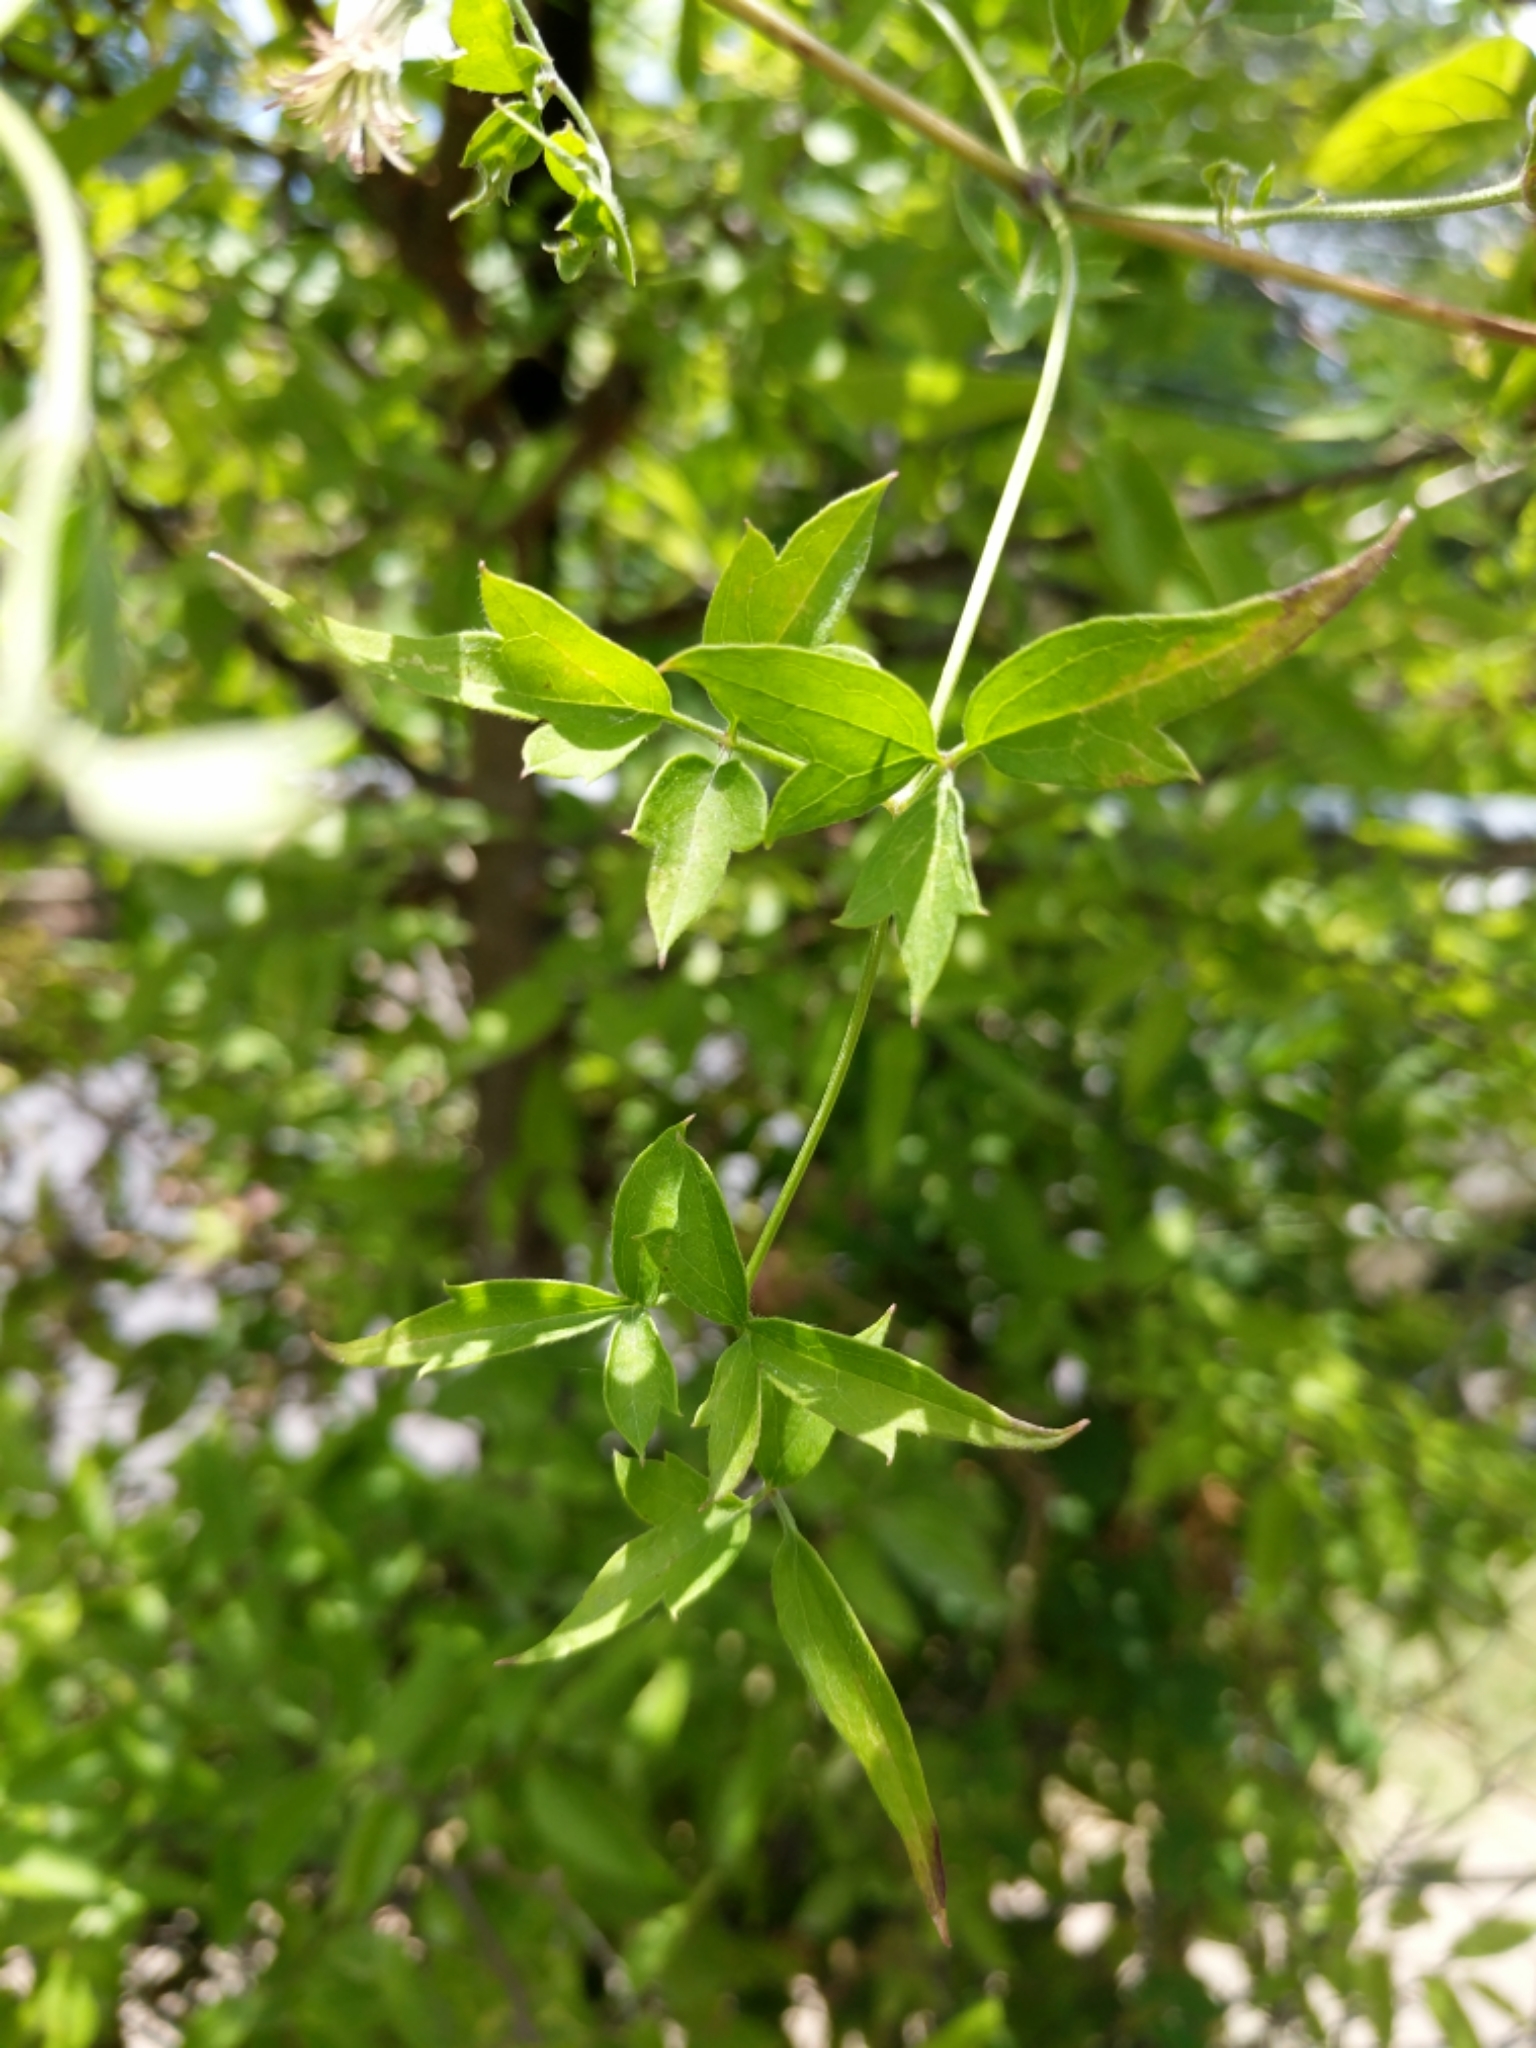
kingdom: Plantae
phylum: Tracheophyta
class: Magnoliopsida
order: Ranunculales
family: Ranunculaceae
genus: Clematis
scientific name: Clematis drummondii
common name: Texas virgin's bower
